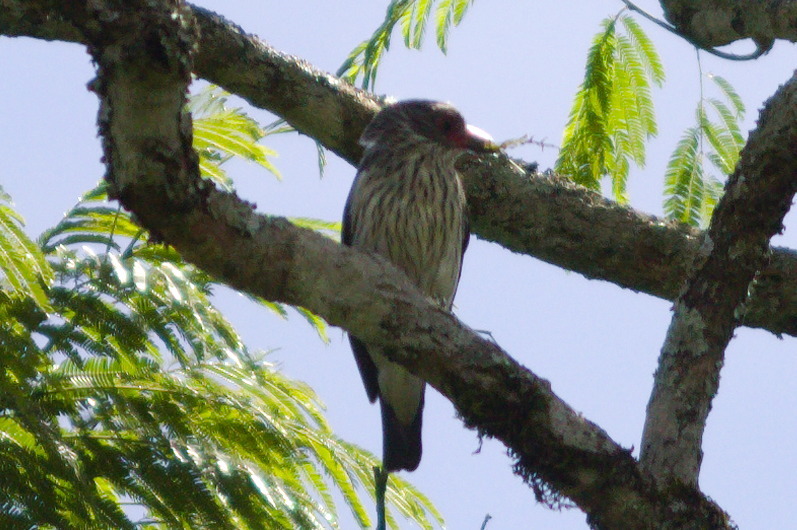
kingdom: Animalia
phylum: Chordata
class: Aves
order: Passeriformes
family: Cotingidae
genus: Tityra
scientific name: Tityra cayana
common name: Black-tailed tityra
